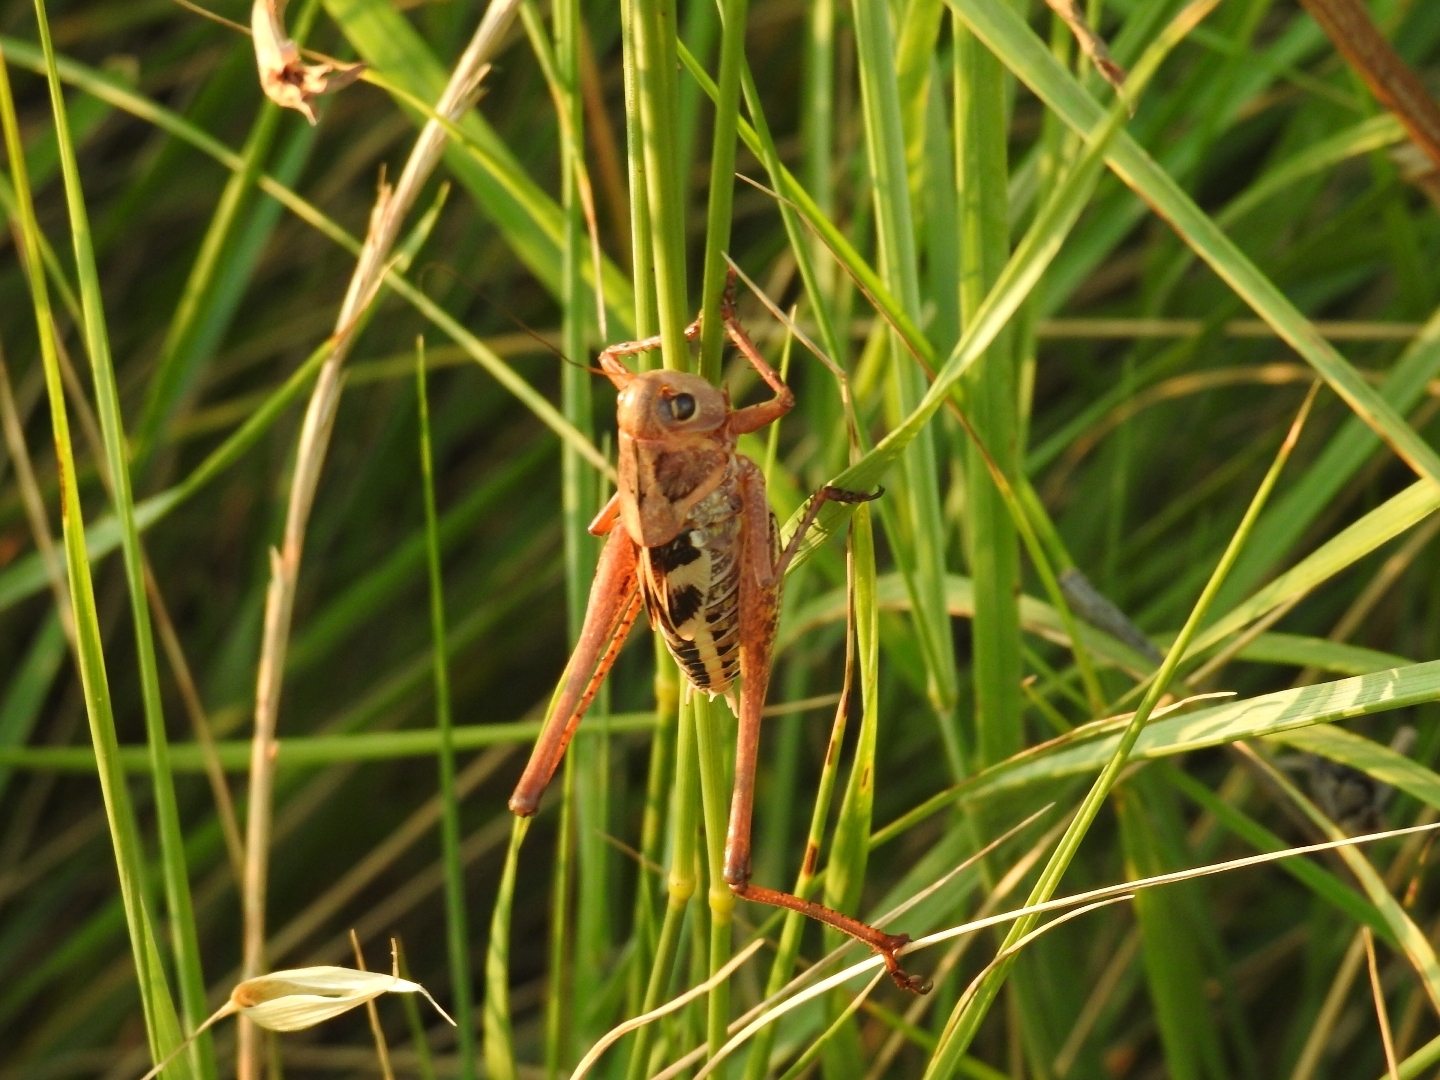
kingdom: Animalia
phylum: Arthropoda
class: Insecta
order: Orthoptera
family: Tettigoniidae
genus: Decticus
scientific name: Decticus albifrons
